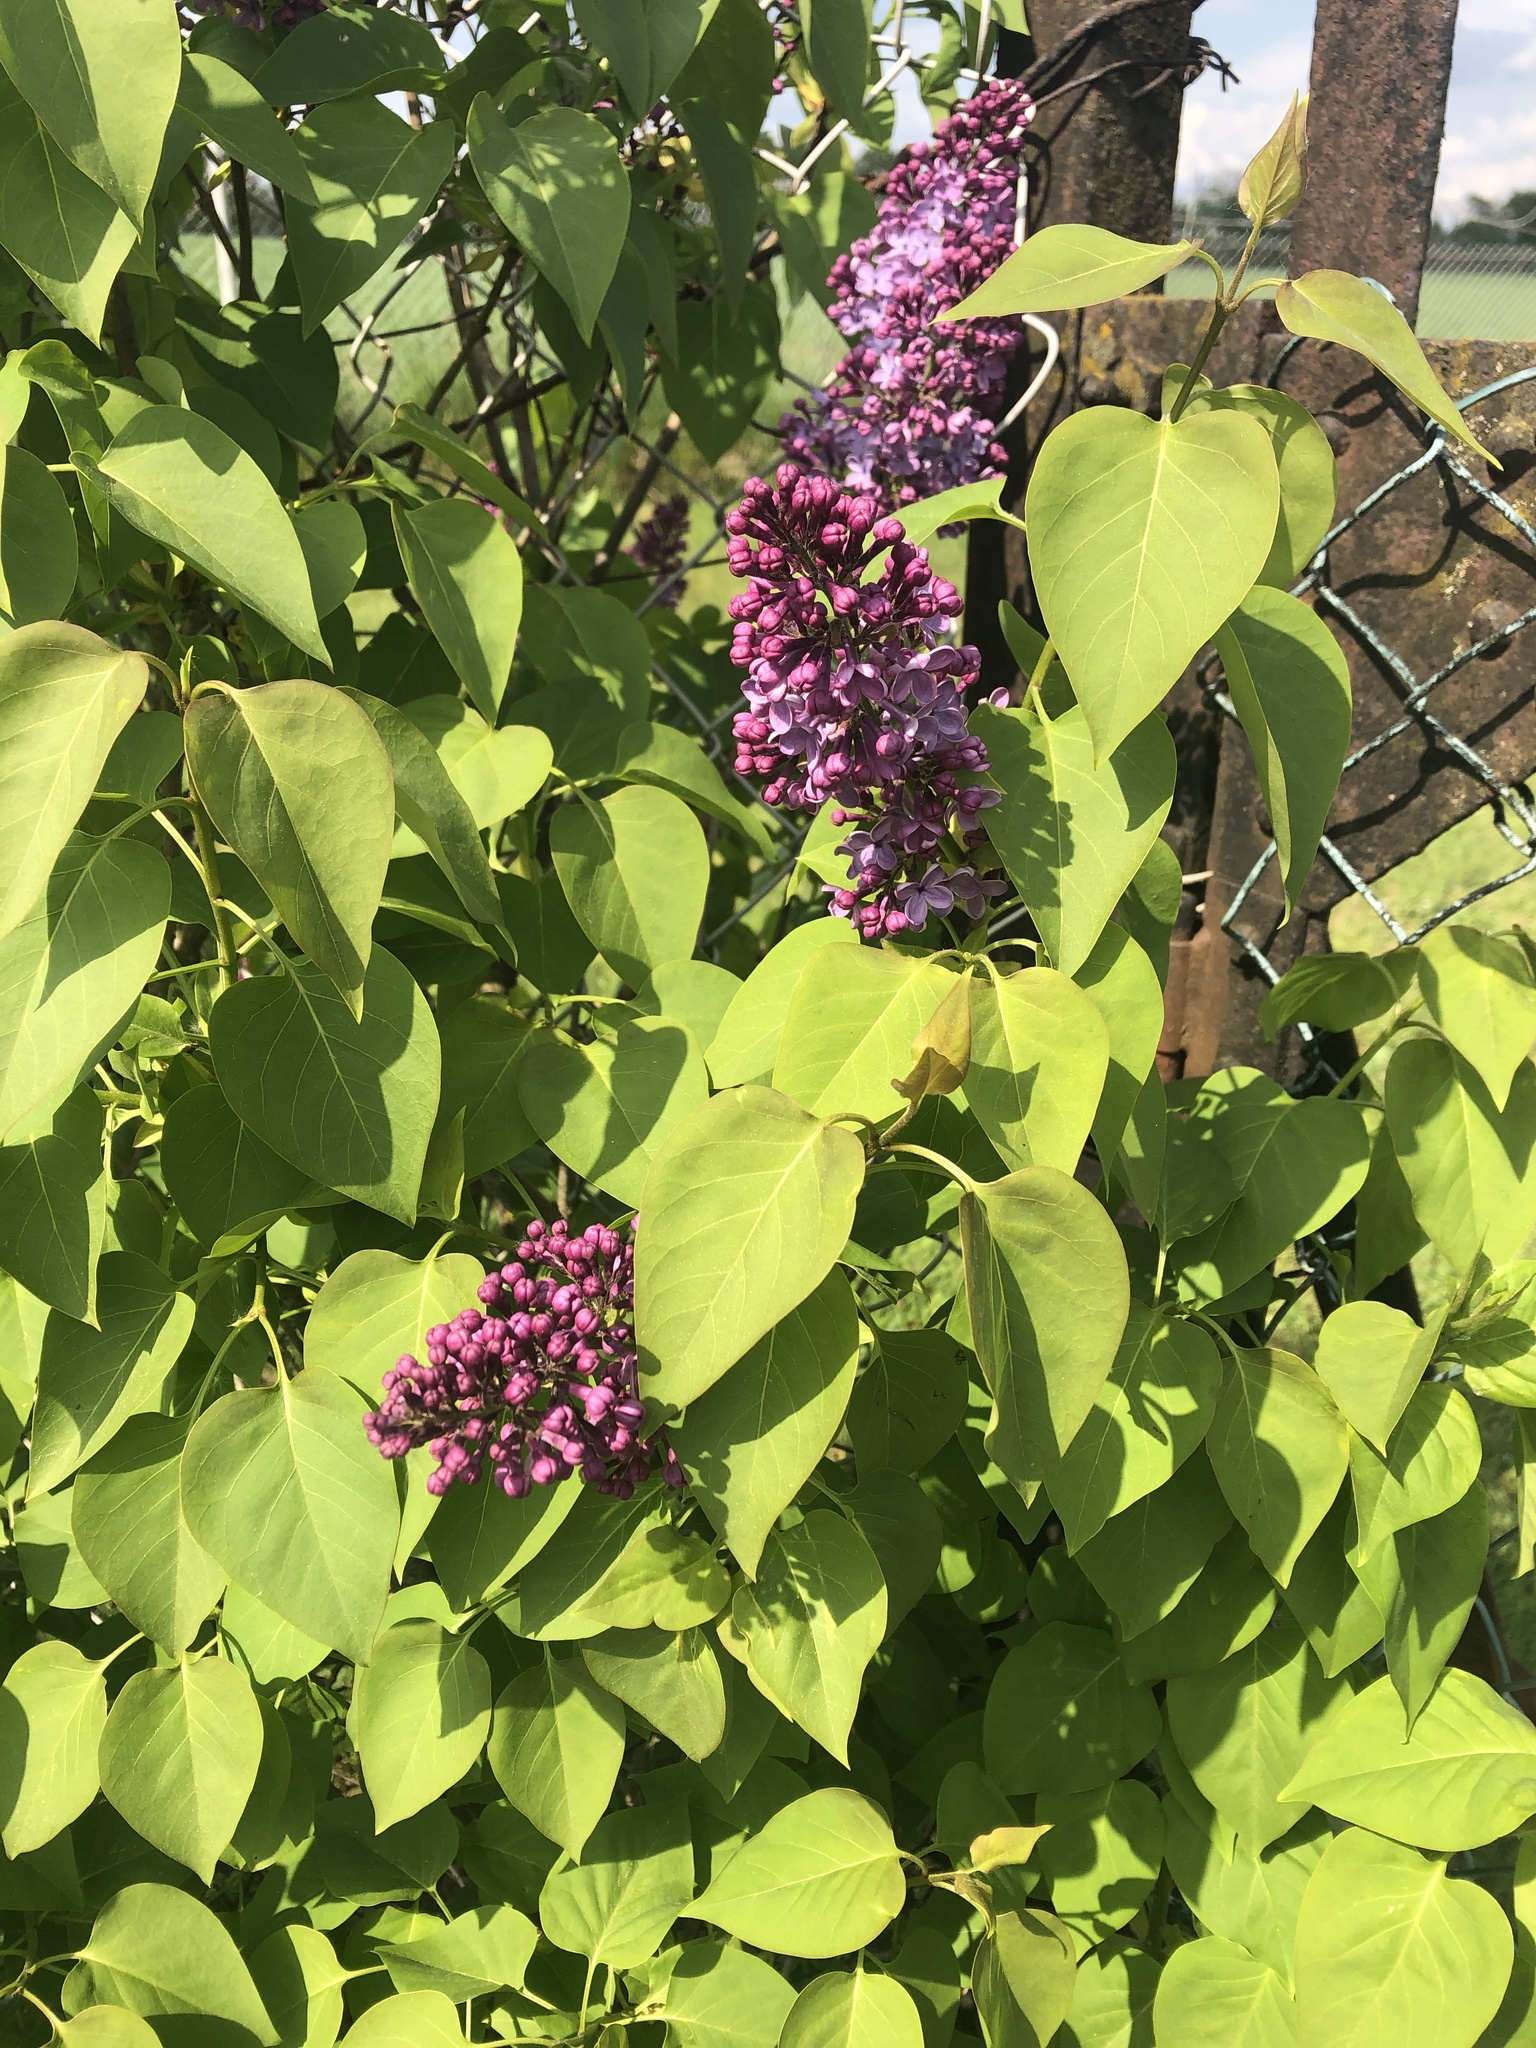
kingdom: Plantae
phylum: Tracheophyta
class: Magnoliopsida
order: Lamiales
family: Oleaceae
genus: Syringa
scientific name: Syringa vulgaris
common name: Common lilac
